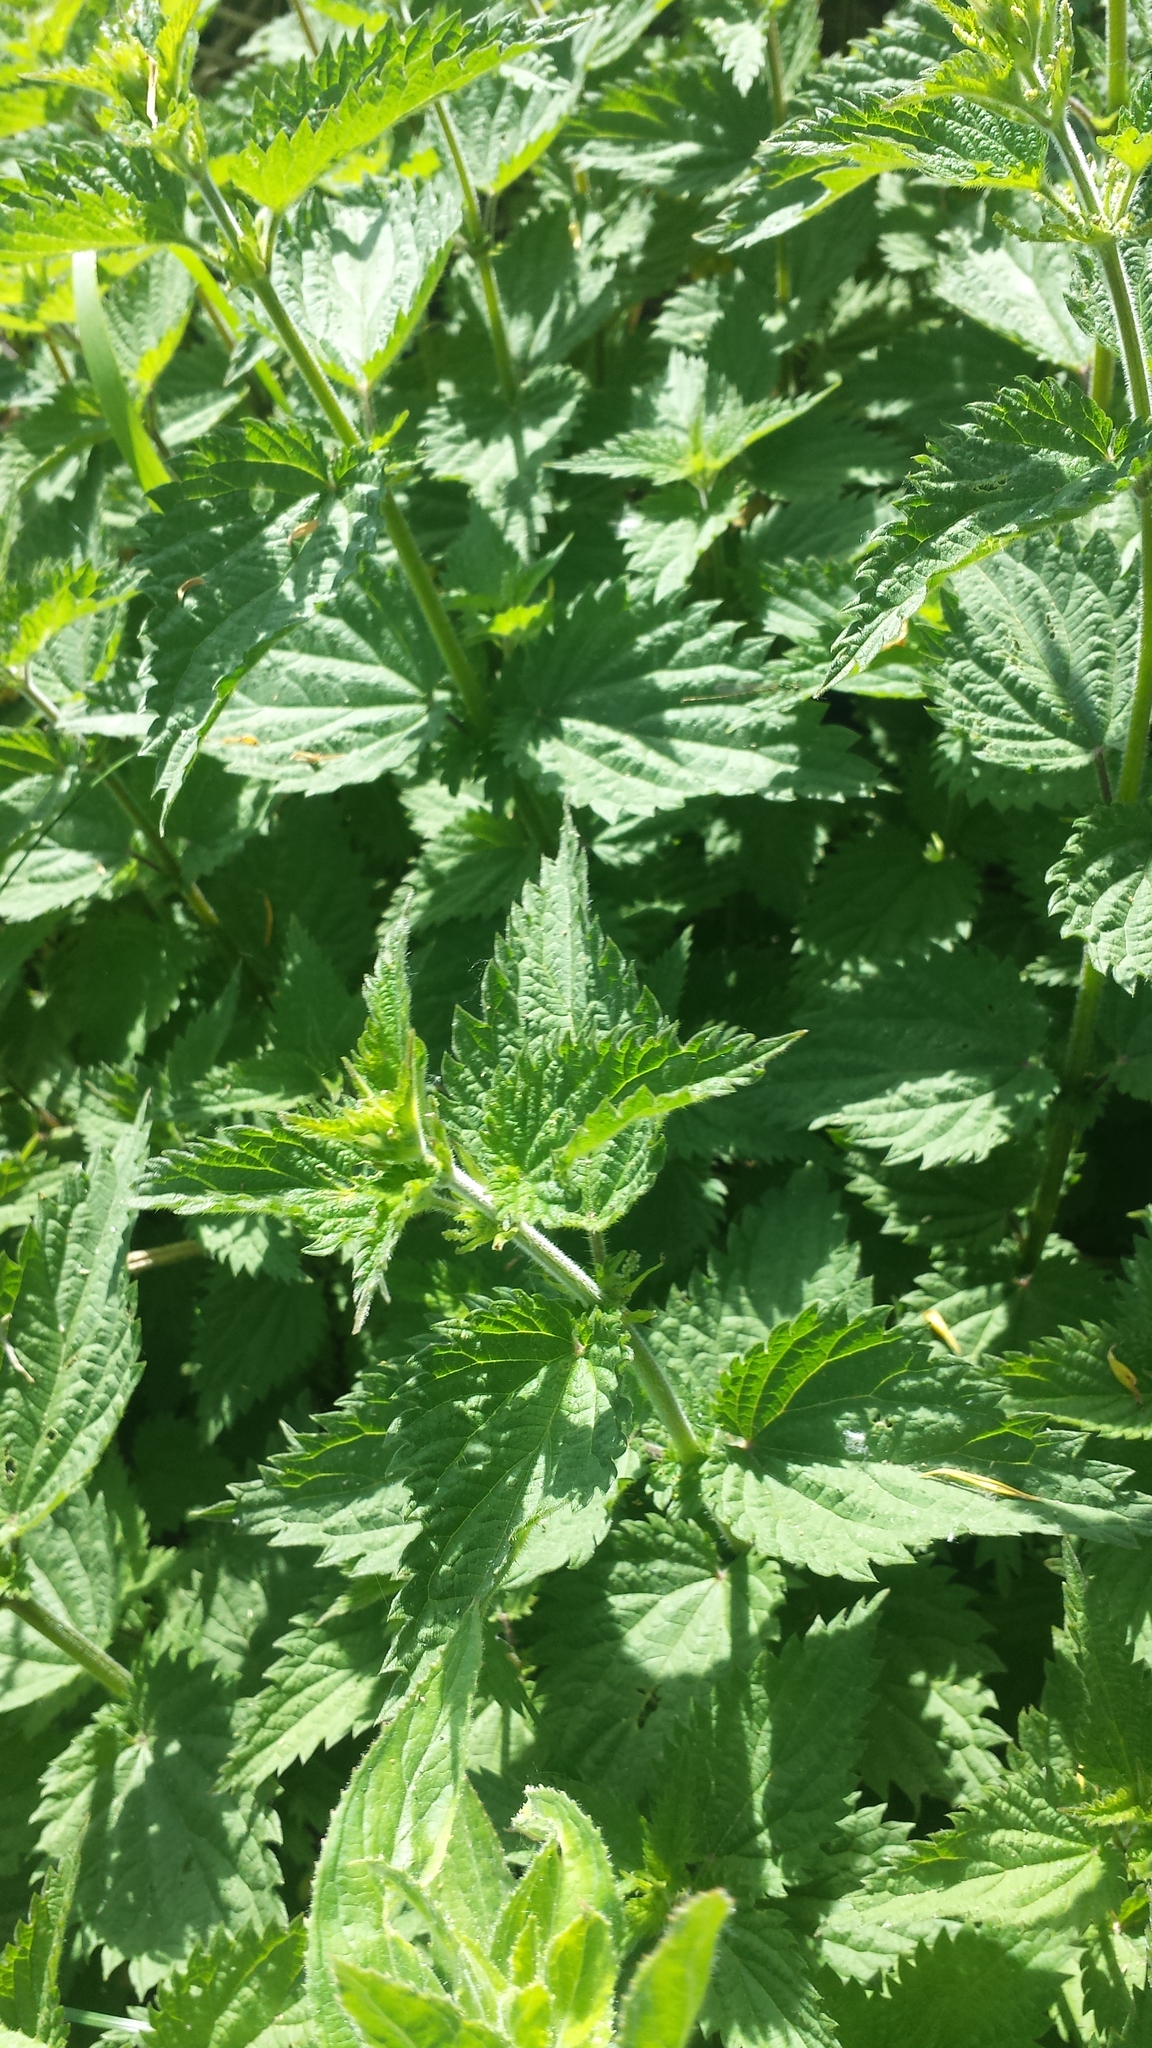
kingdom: Plantae
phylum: Tracheophyta
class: Magnoliopsida
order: Rosales
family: Urticaceae
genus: Urtica
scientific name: Urtica dioica
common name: Common nettle
